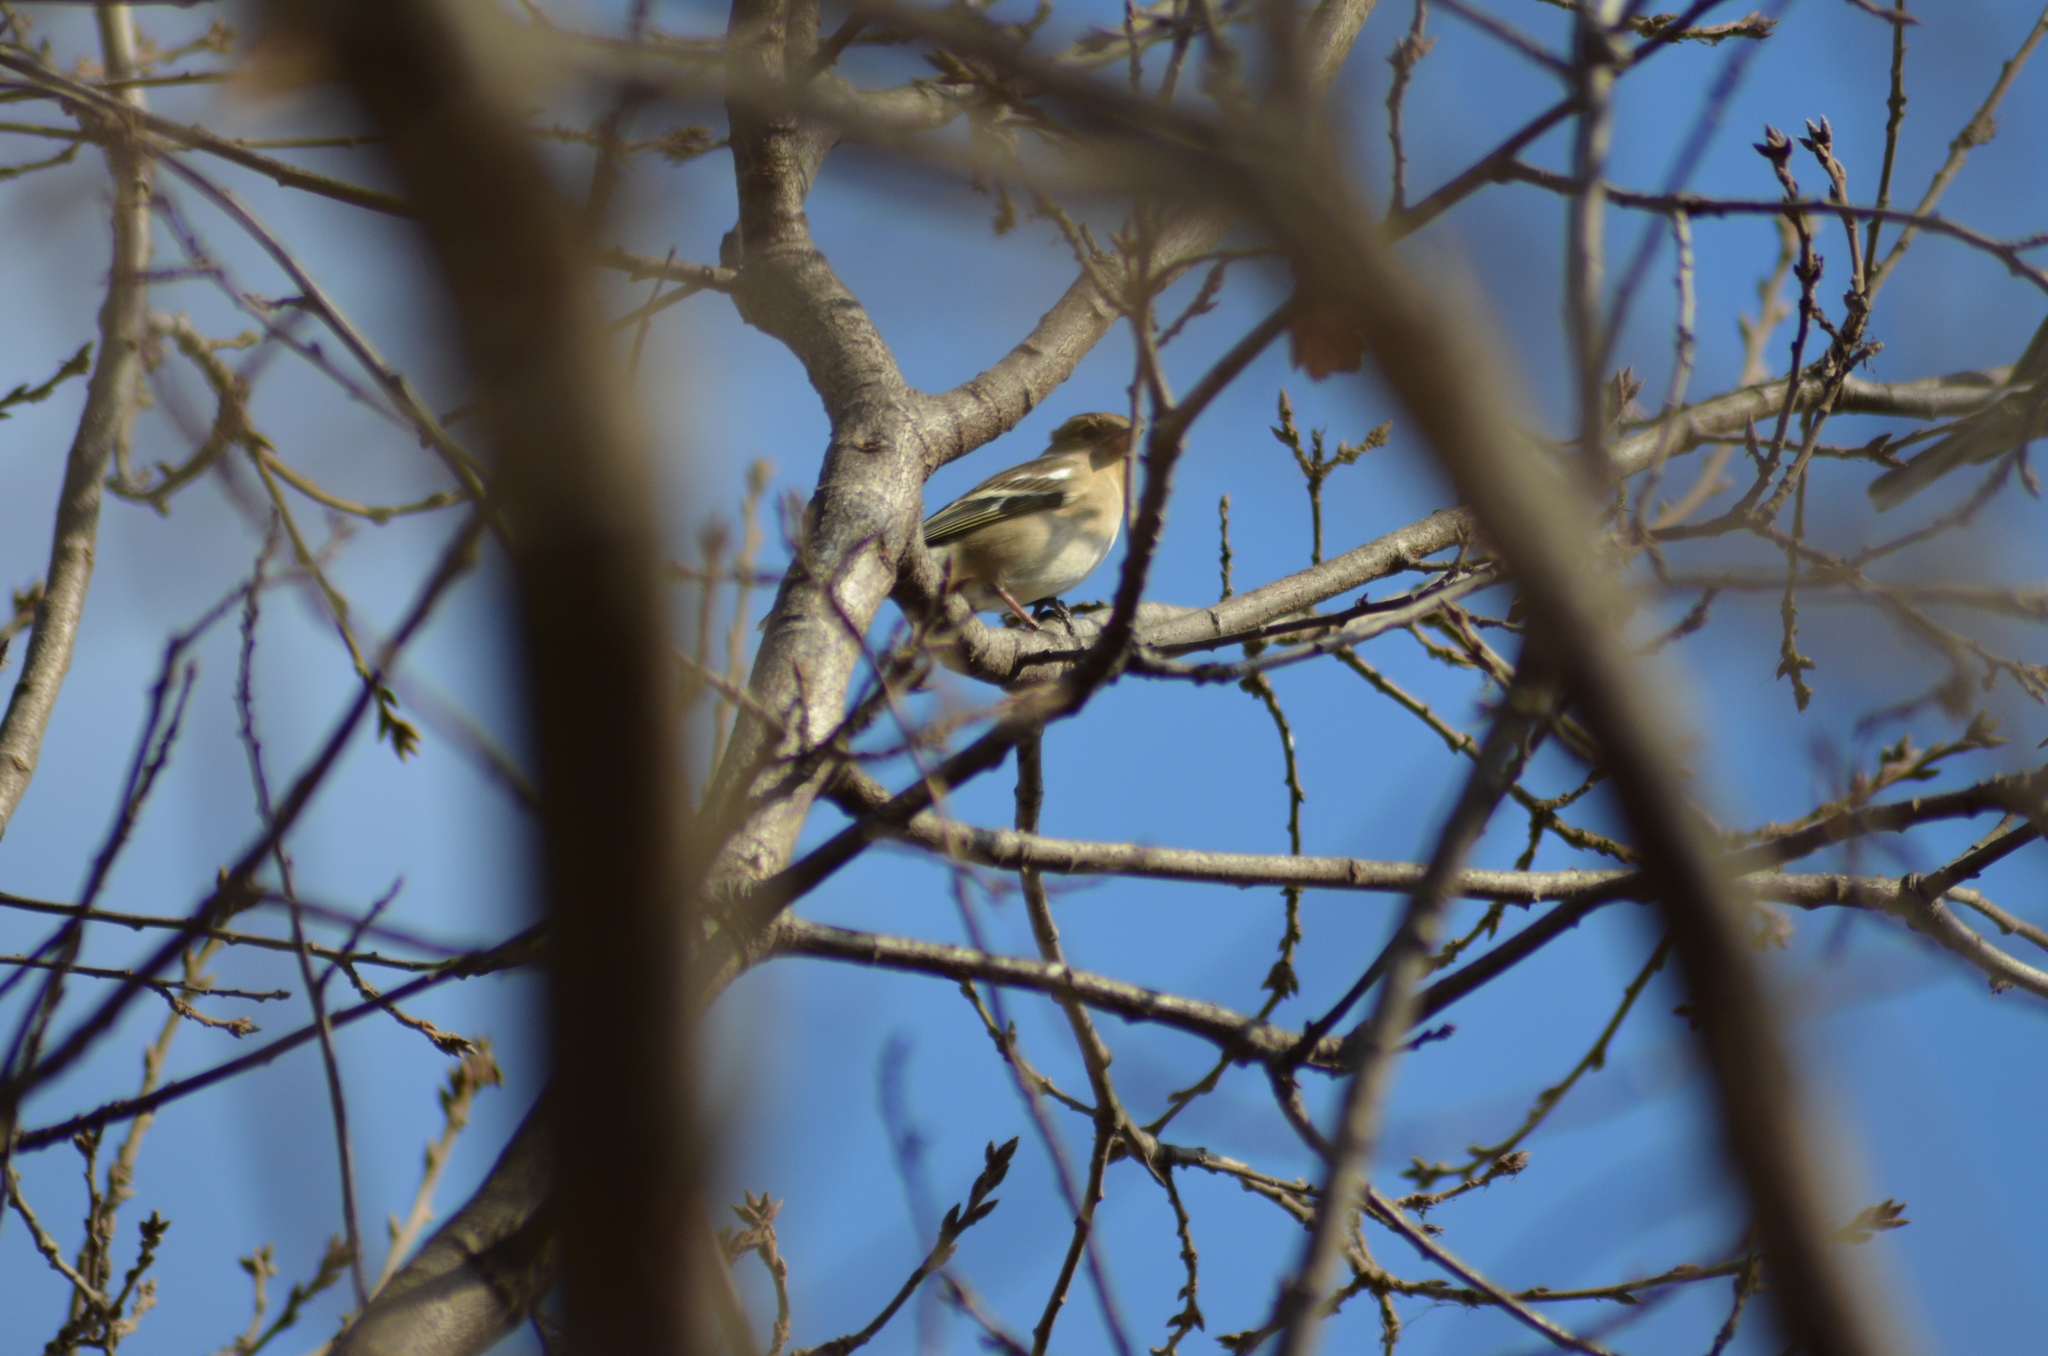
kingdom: Animalia
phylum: Chordata
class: Aves
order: Passeriformes
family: Fringillidae
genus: Fringilla
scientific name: Fringilla coelebs
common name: Common chaffinch
